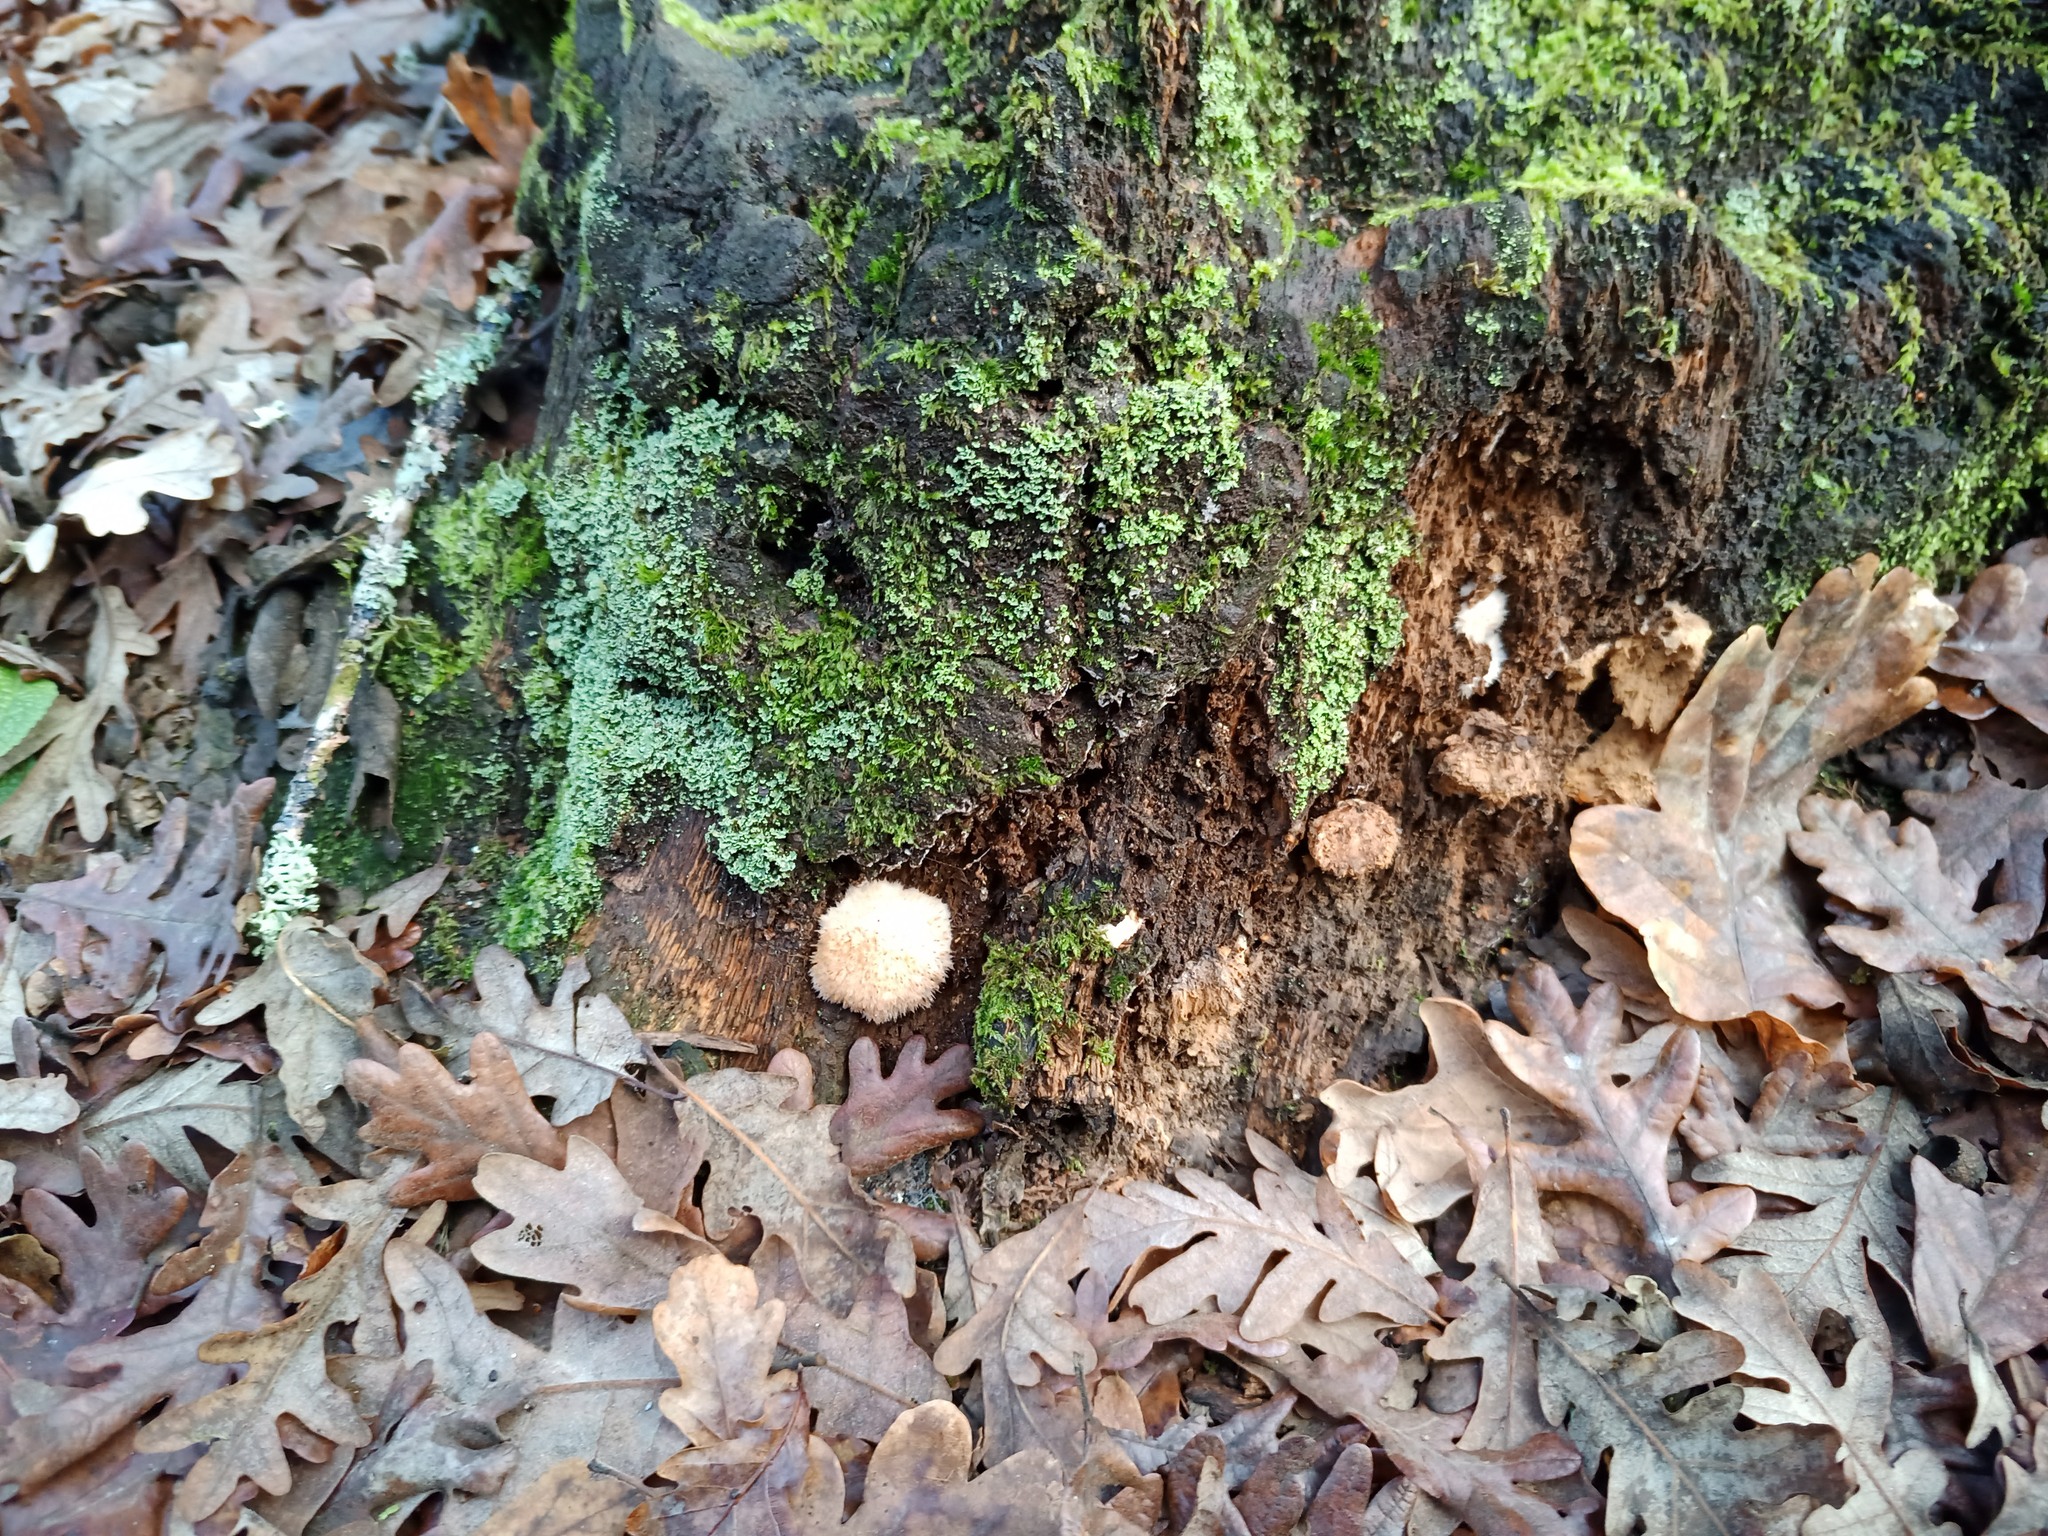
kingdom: Fungi
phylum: Basidiomycota
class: Agaricomycetes
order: Polyporales
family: Dacryobolaceae
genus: Postia
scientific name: Postia ptychogaster
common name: Powderpuff bracket
